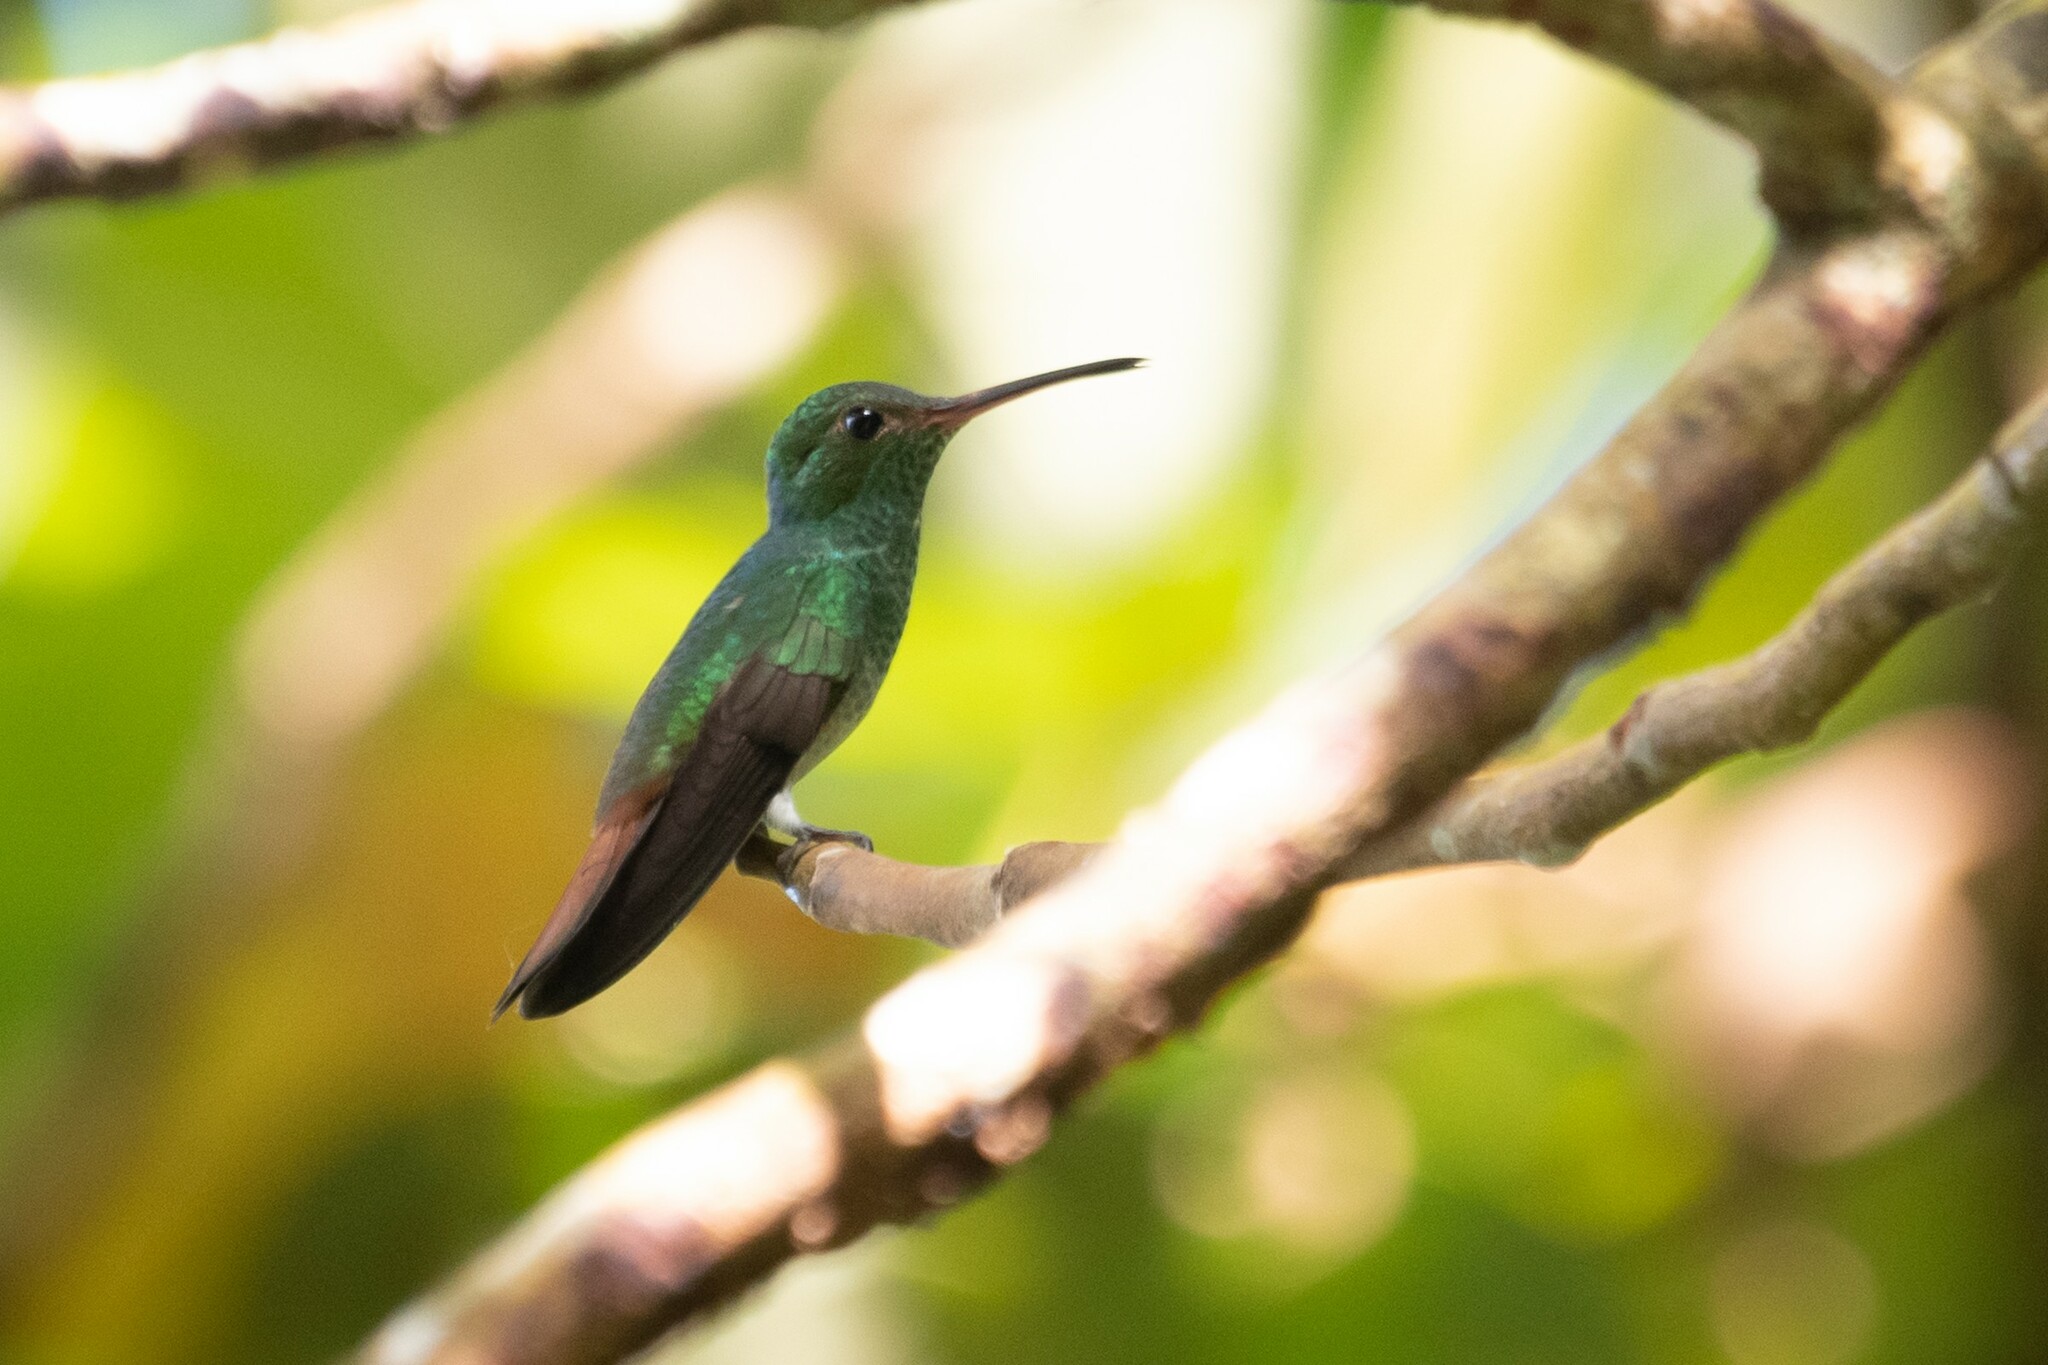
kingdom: Animalia
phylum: Chordata
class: Aves
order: Apodiformes
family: Trochilidae
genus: Amazilia
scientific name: Amazilia tzacatl
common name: Rufous-tailed hummingbird
